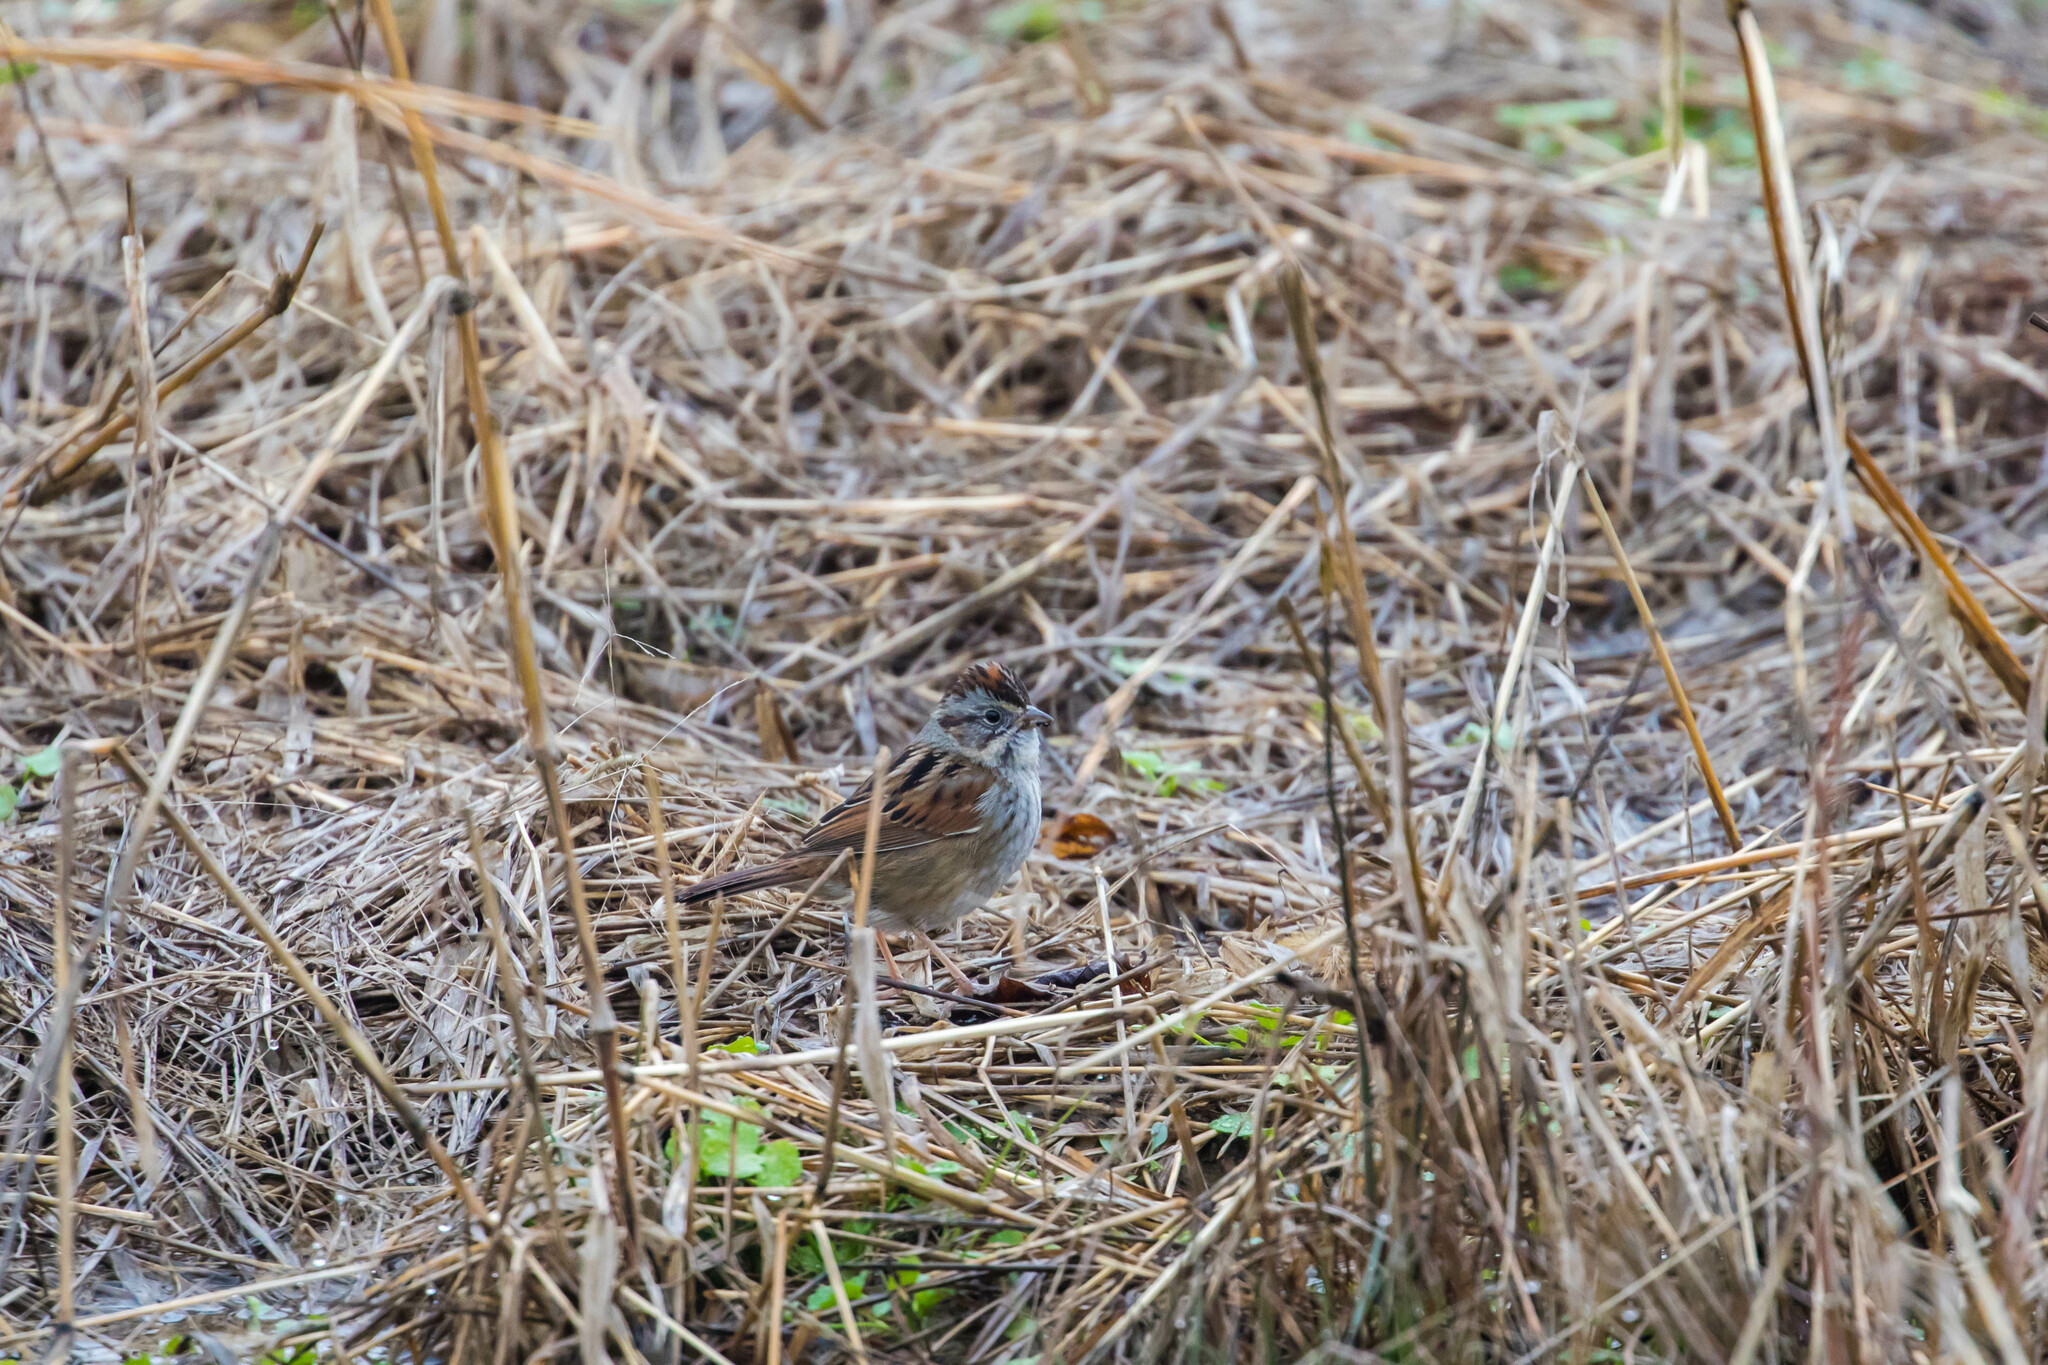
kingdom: Animalia
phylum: Chordata
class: Aves
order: Passeriformes
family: Passerellidae
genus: Melospiza
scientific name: Melospiza georgiana
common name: Swamp sparrow
